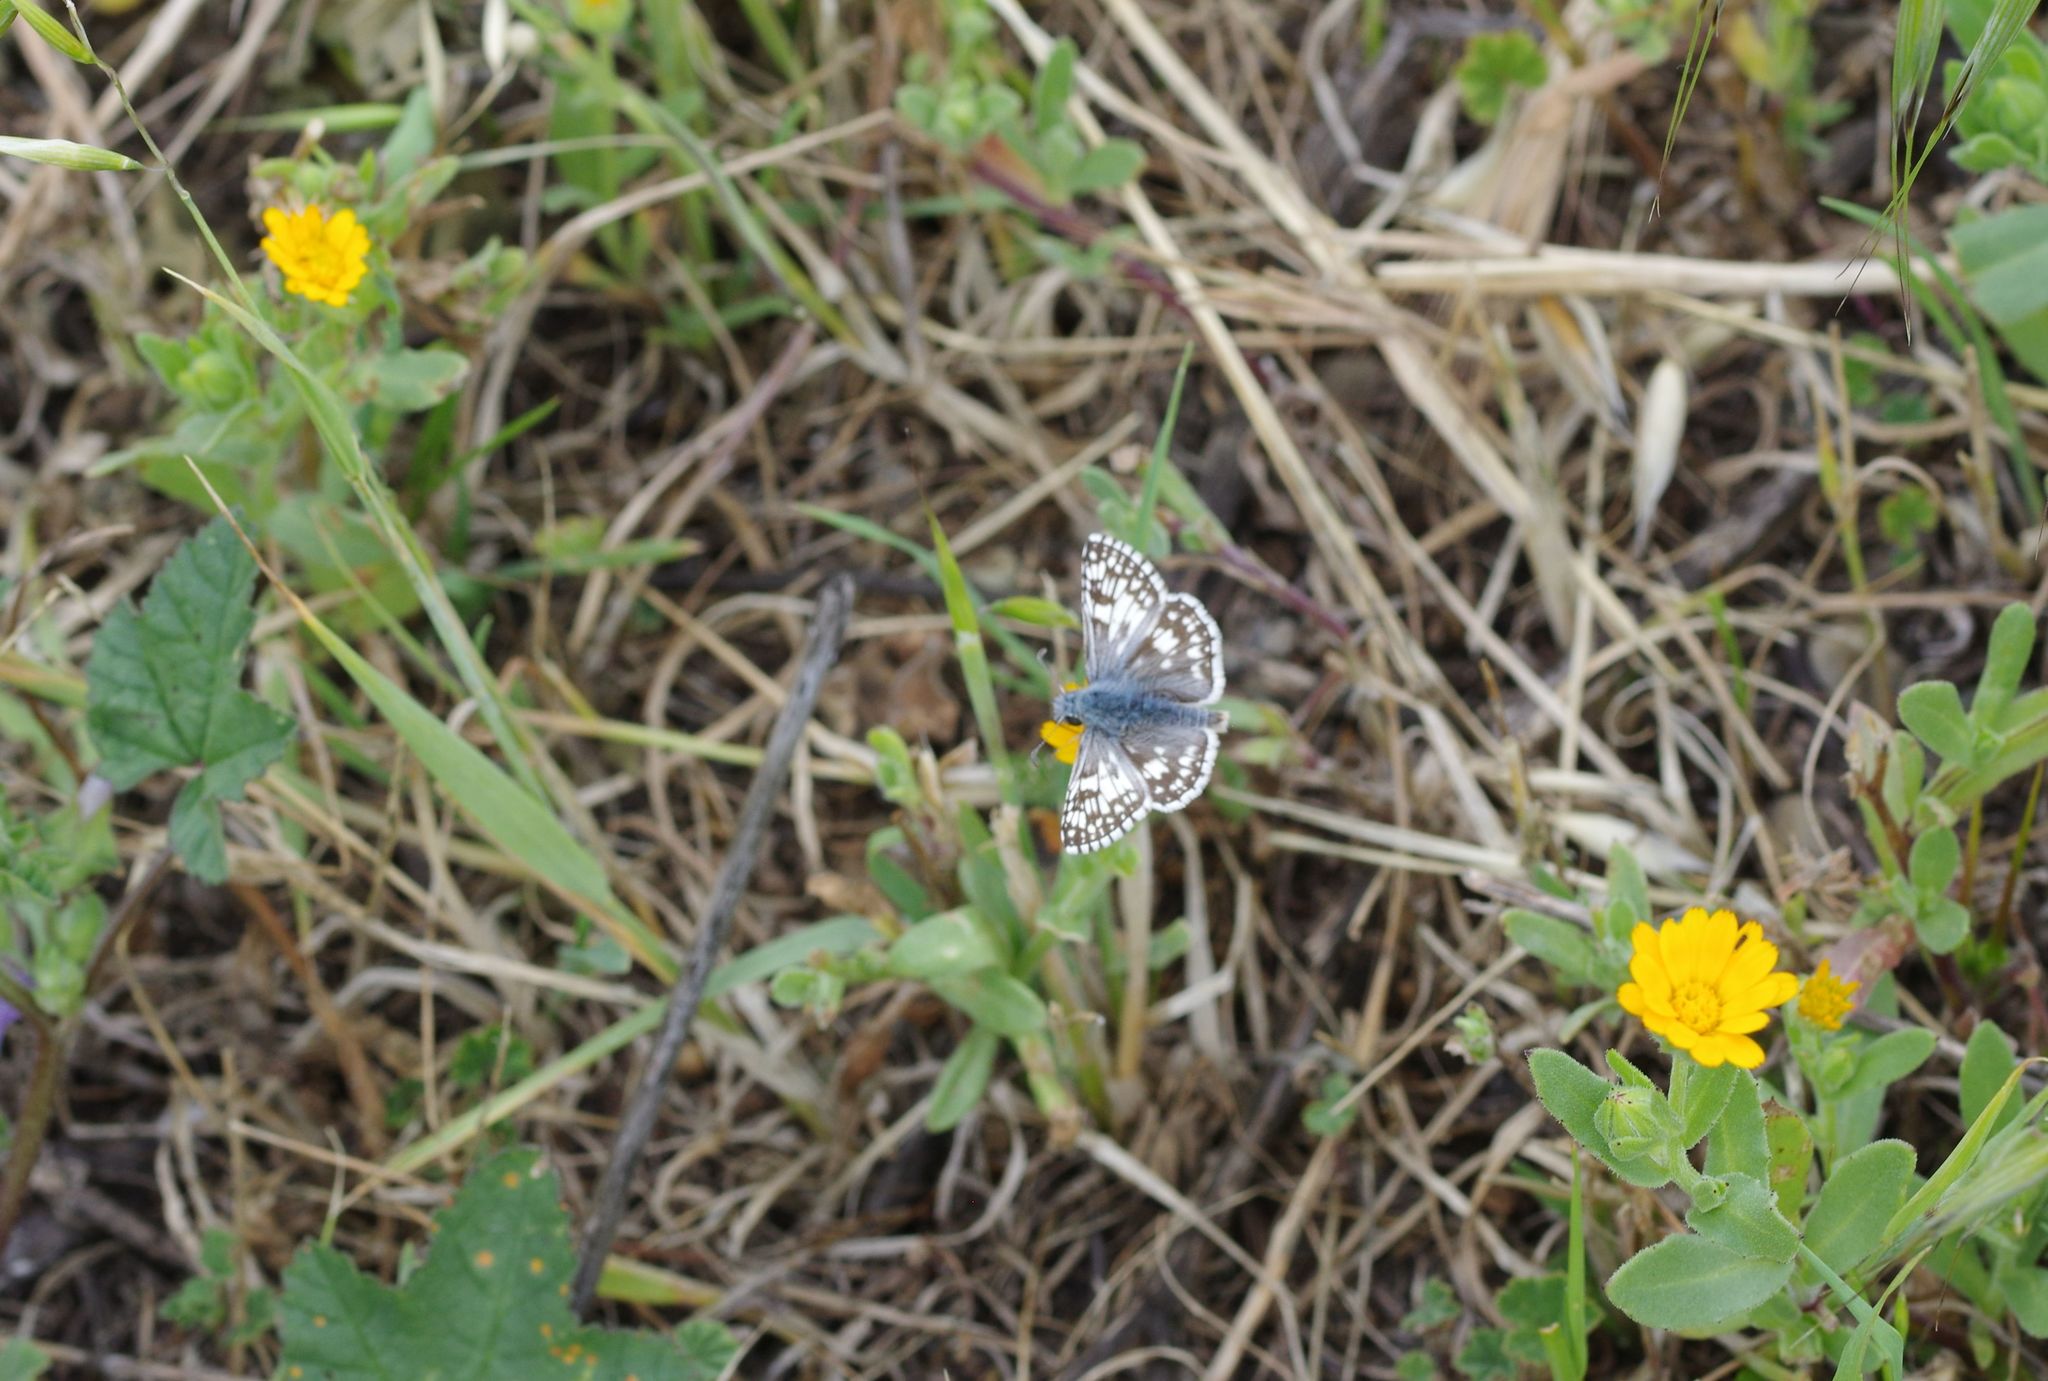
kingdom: Animalia
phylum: Arthropoda
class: Insecta
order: Lepidoptera
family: Hesperiidae
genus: Burnsius
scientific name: Burnsius communis
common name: Common checkered-skipper
